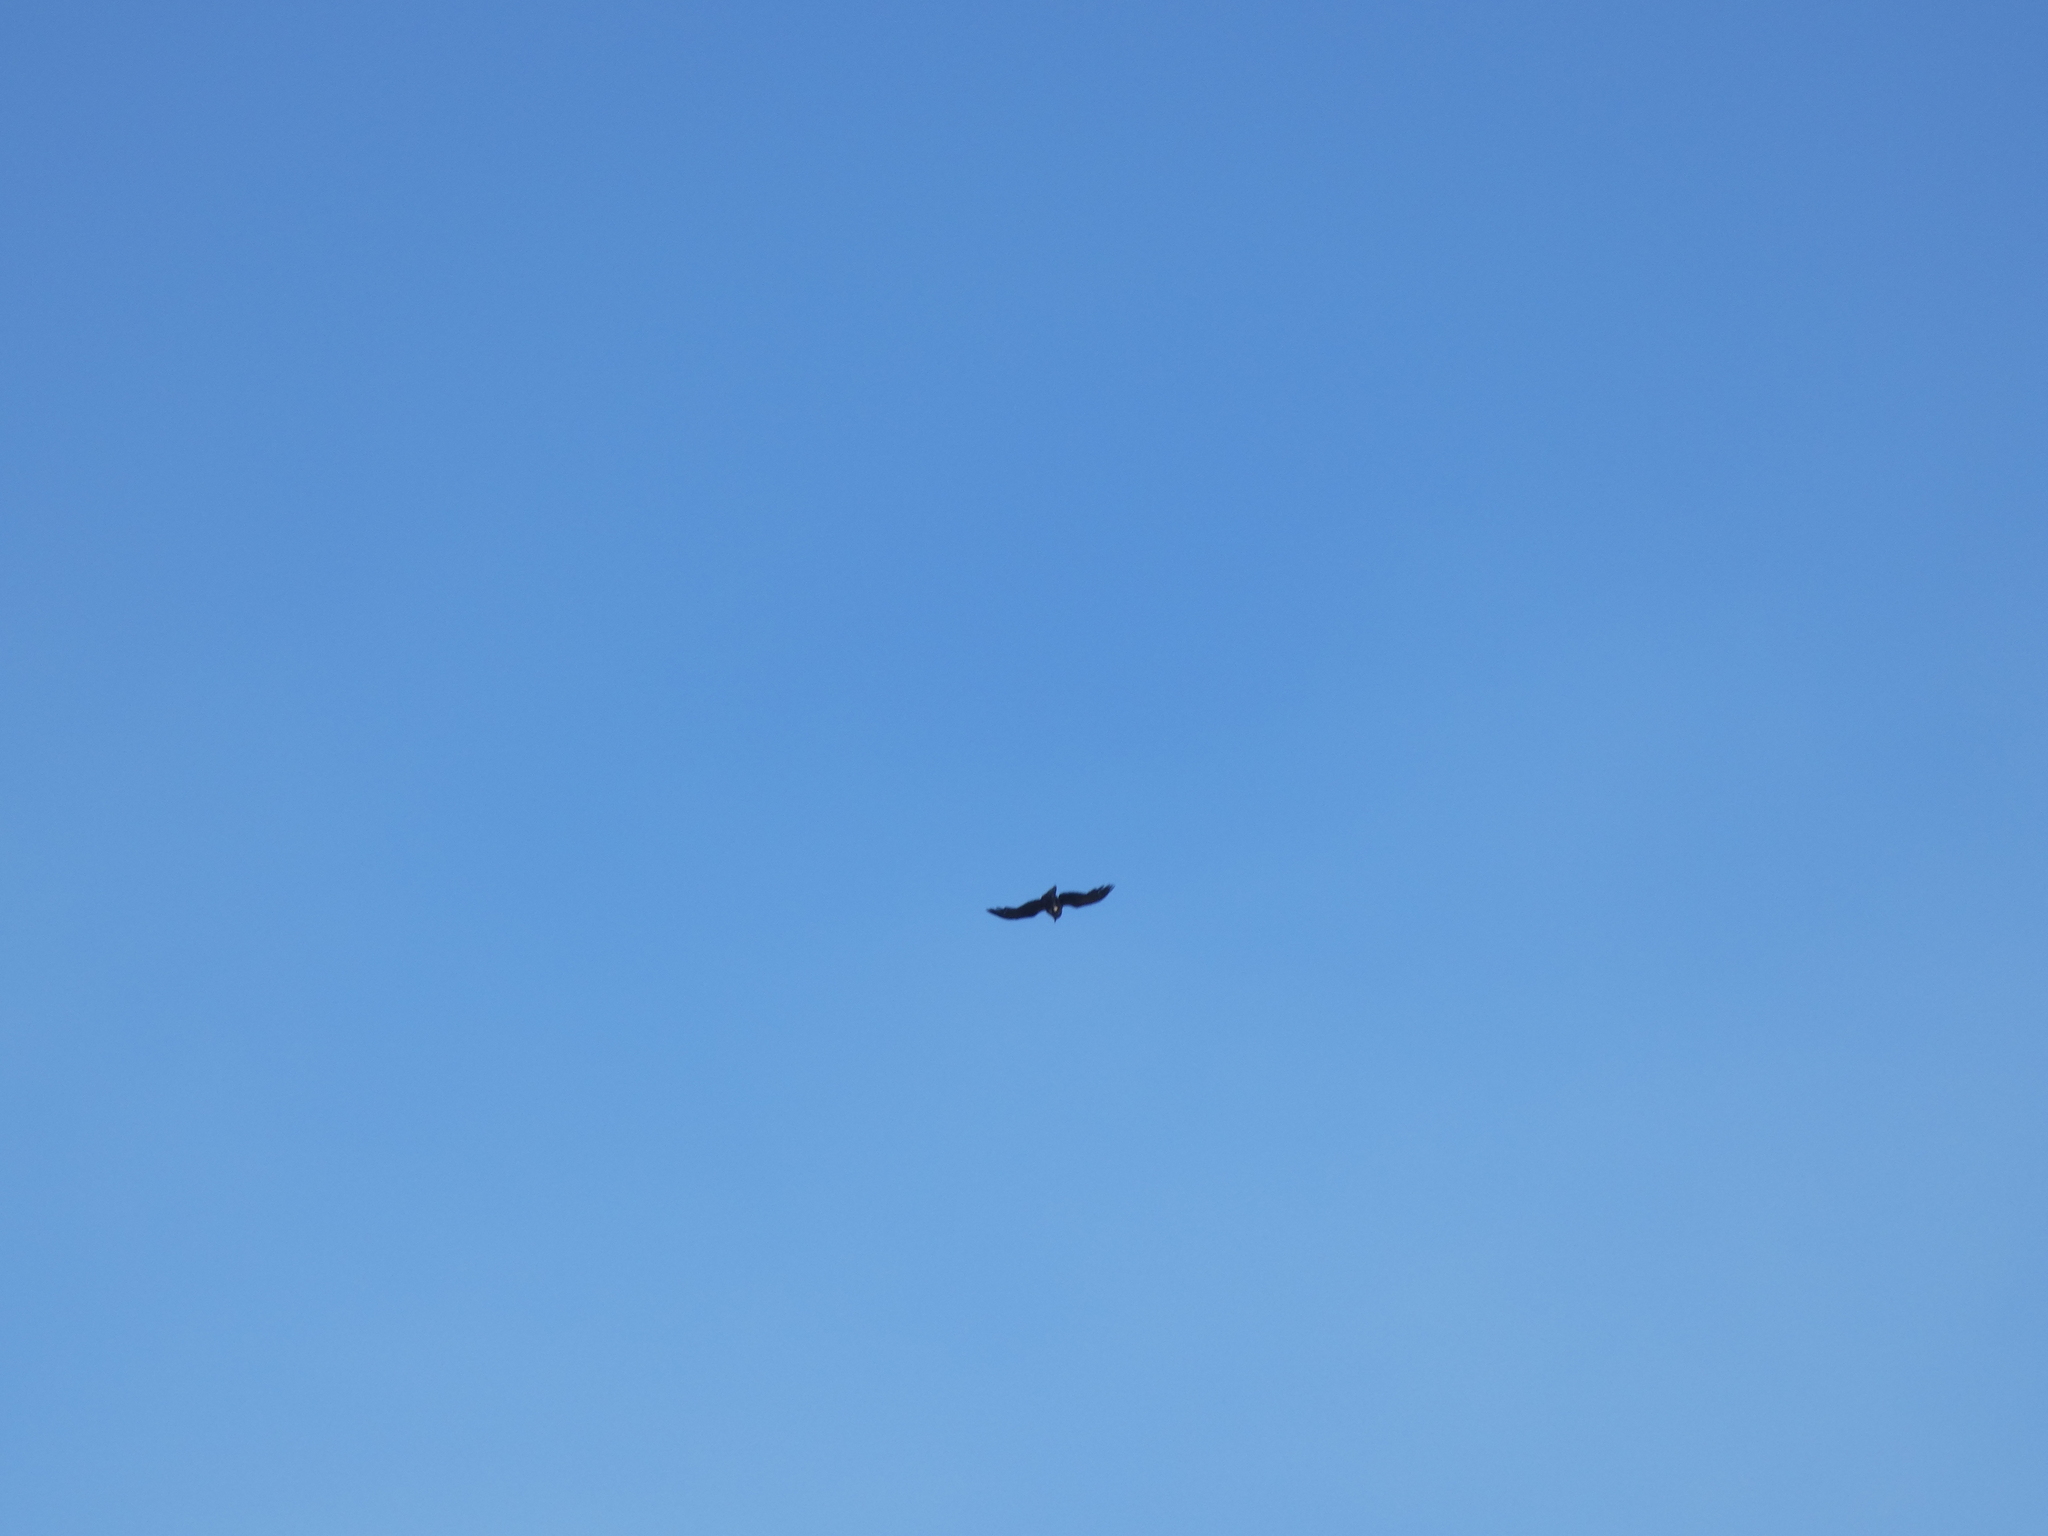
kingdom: Animalia
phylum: Chordata
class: Aves
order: Passeriformes
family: Corvidae
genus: Corvus
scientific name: Corvus corax
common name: Common raven
